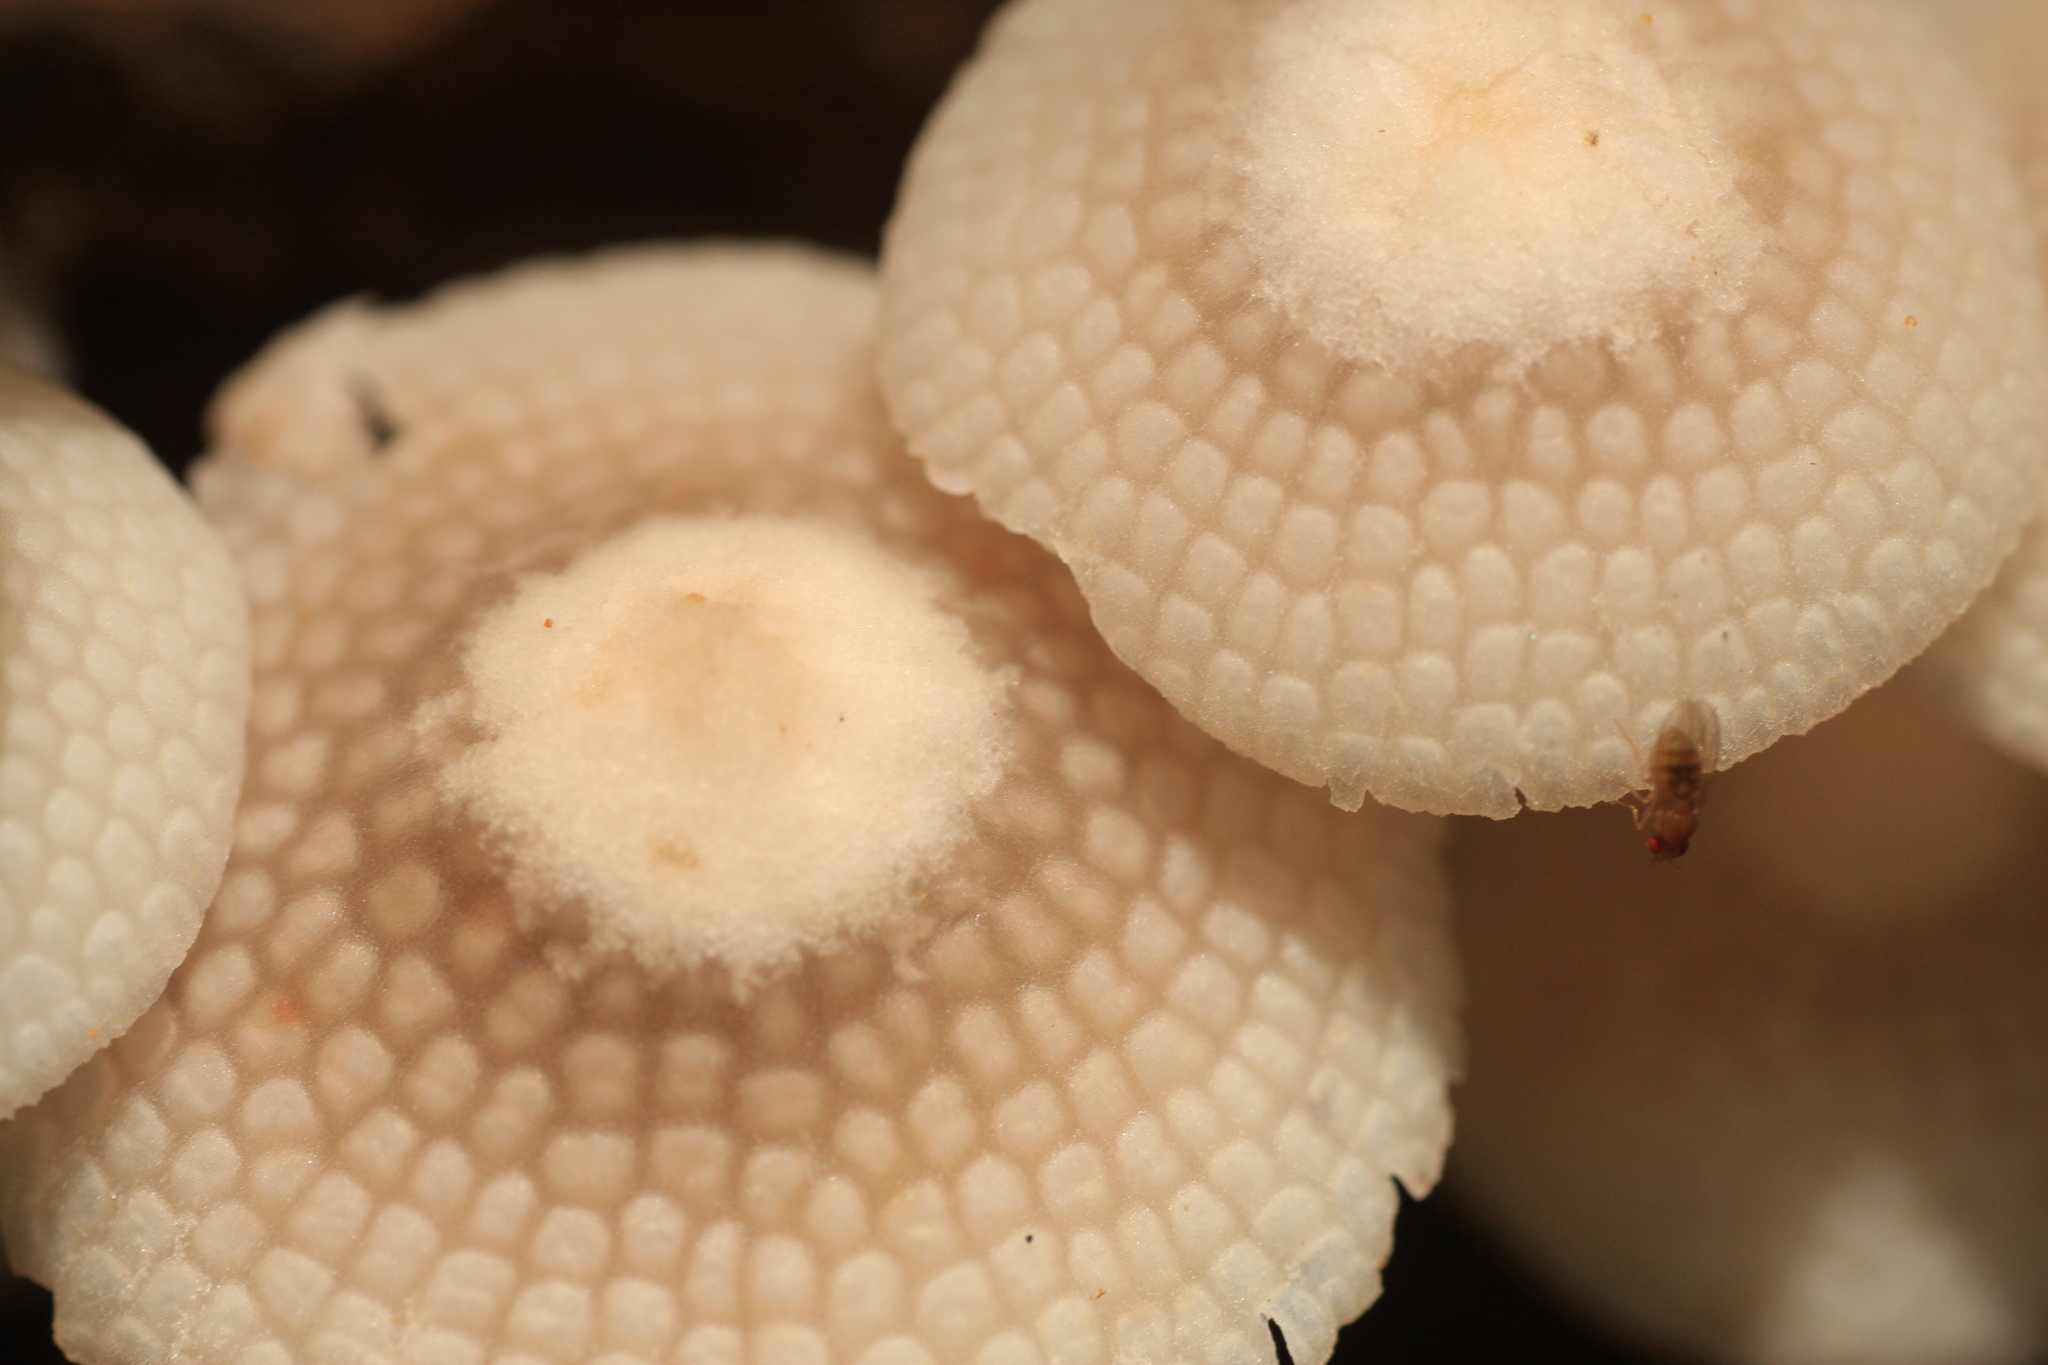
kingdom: Fungi
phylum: Basidiomycota
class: Agaricomycetes
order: Agaricales
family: Mycenaceae
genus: Filoboletus
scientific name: Filoboletus manipularis
